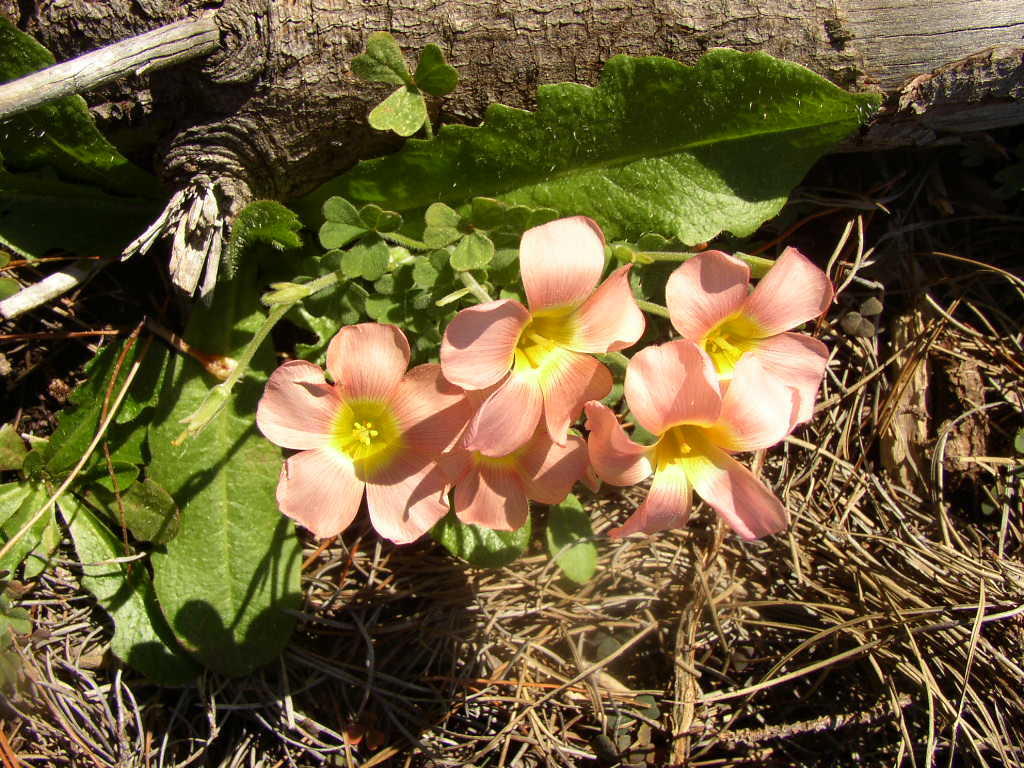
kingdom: Plantae
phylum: Tracheophyta
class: Magnoliopsida
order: Oxalidales
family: Oxalidaceae
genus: Oxalis
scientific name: Oxalis obtusa
